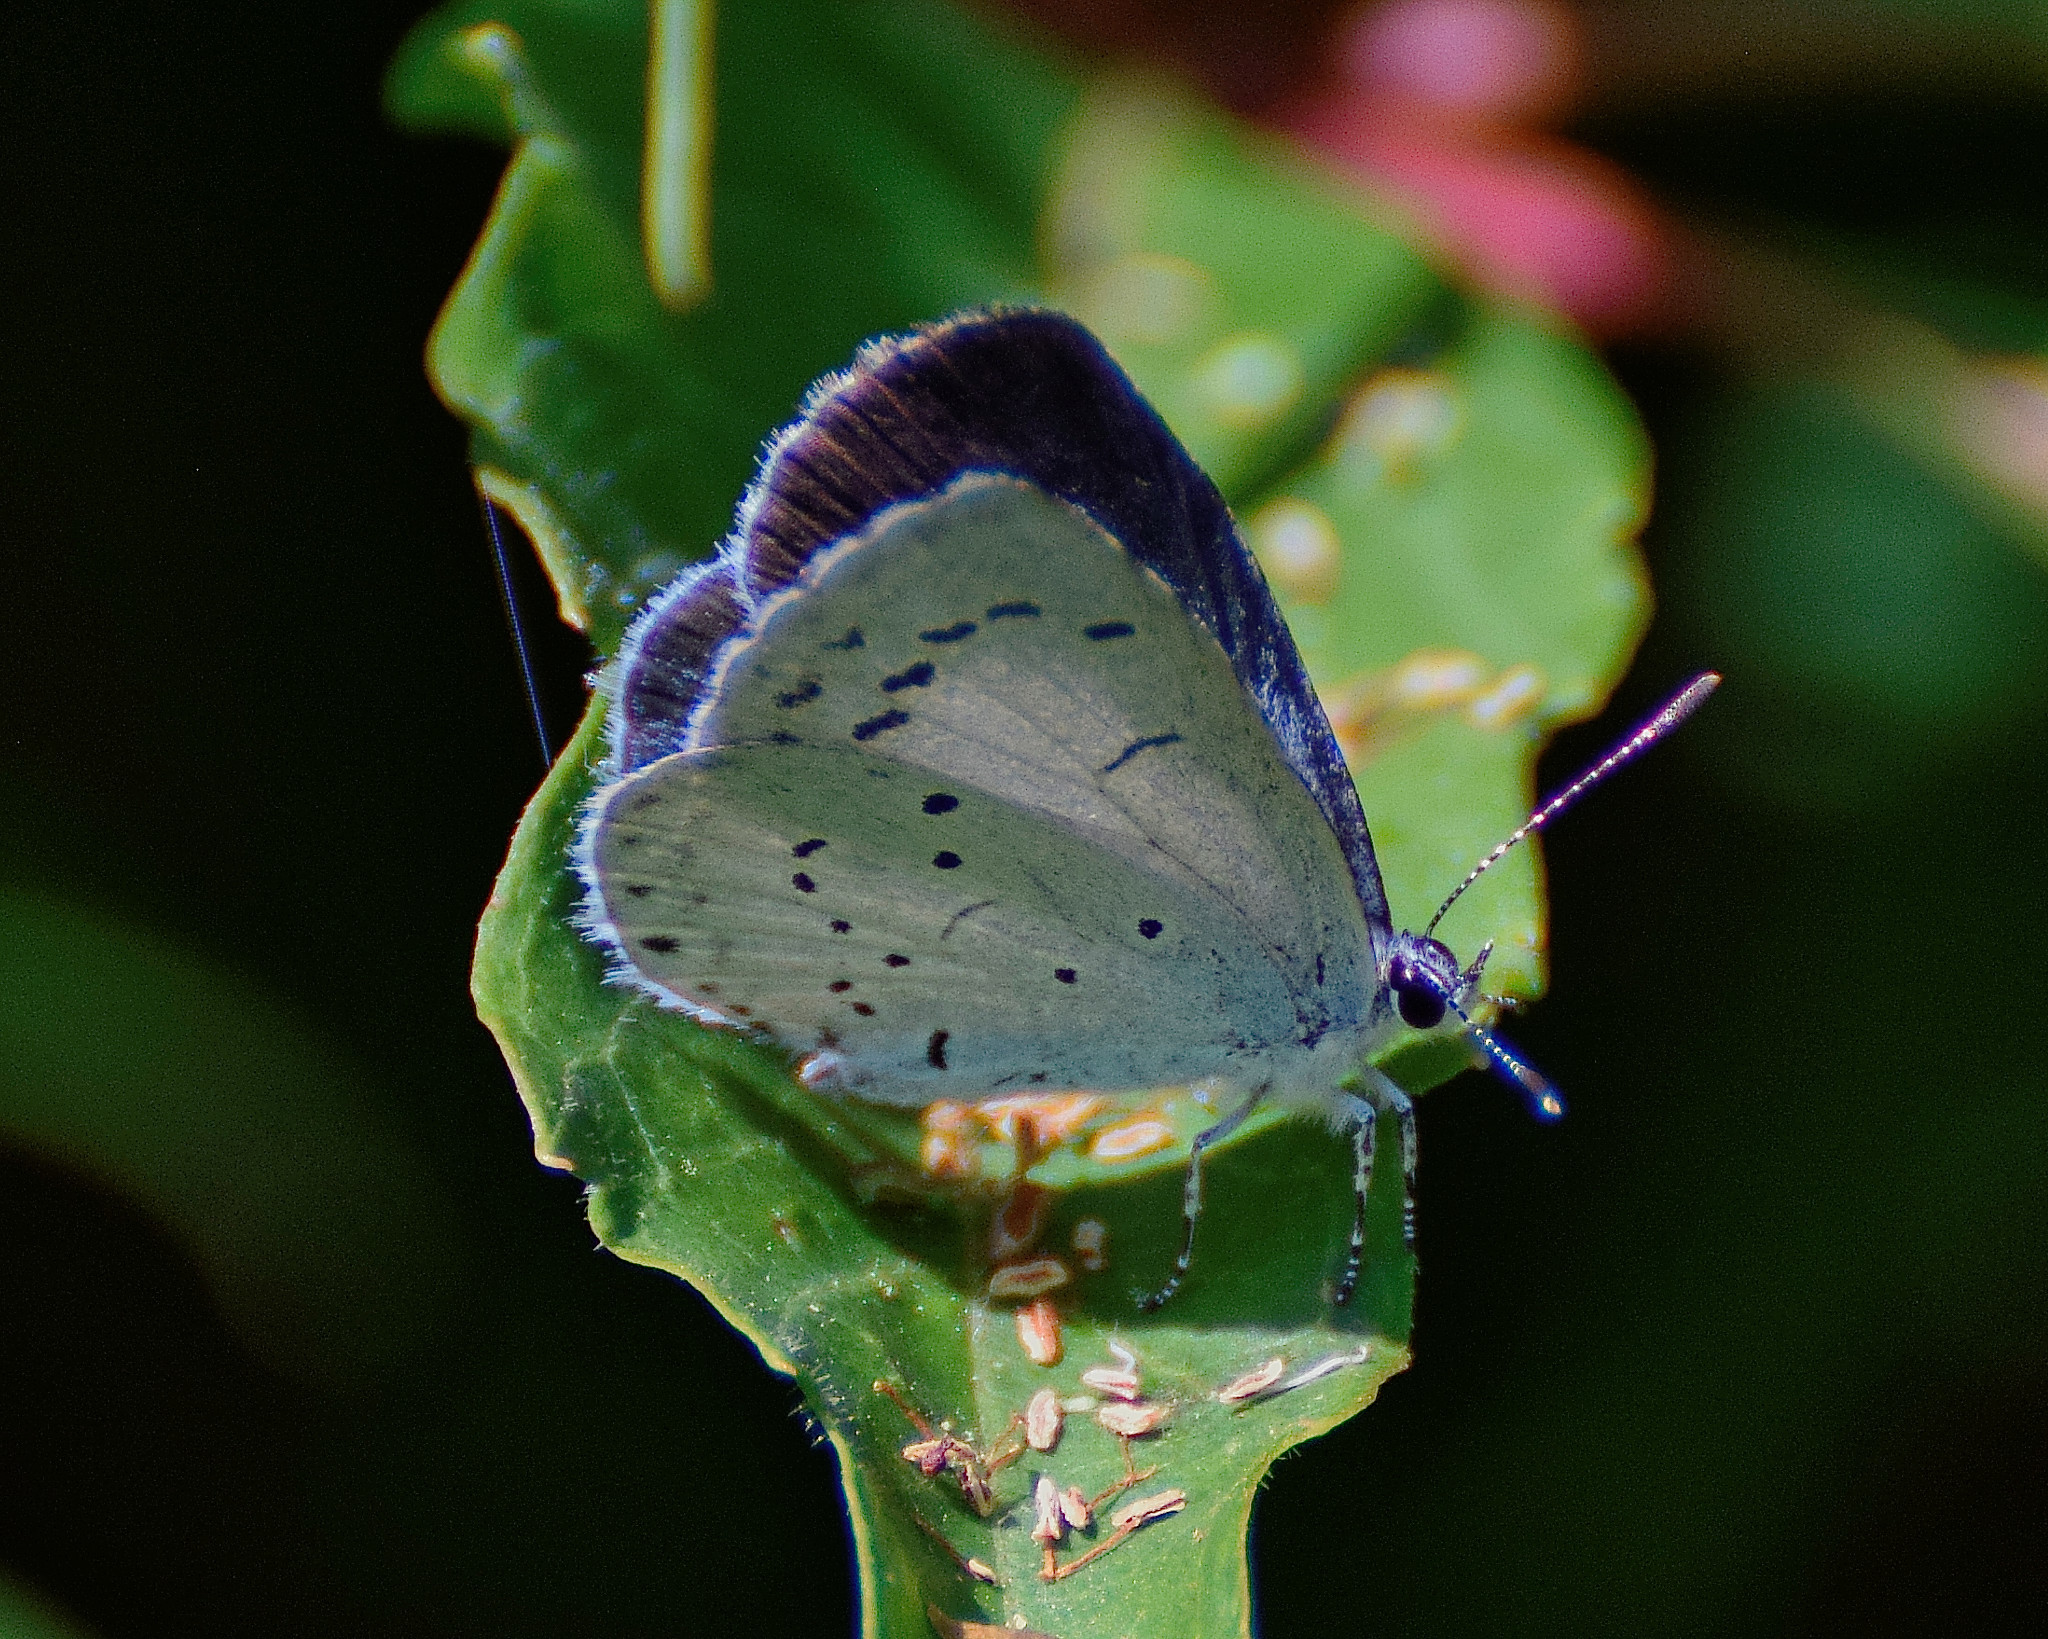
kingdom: Animalia
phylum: Arthropoda
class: Insecta
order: Lepidoptera
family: Lycaenidae
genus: Celastrina
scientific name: Celastrina argiolus
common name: Holly blue
